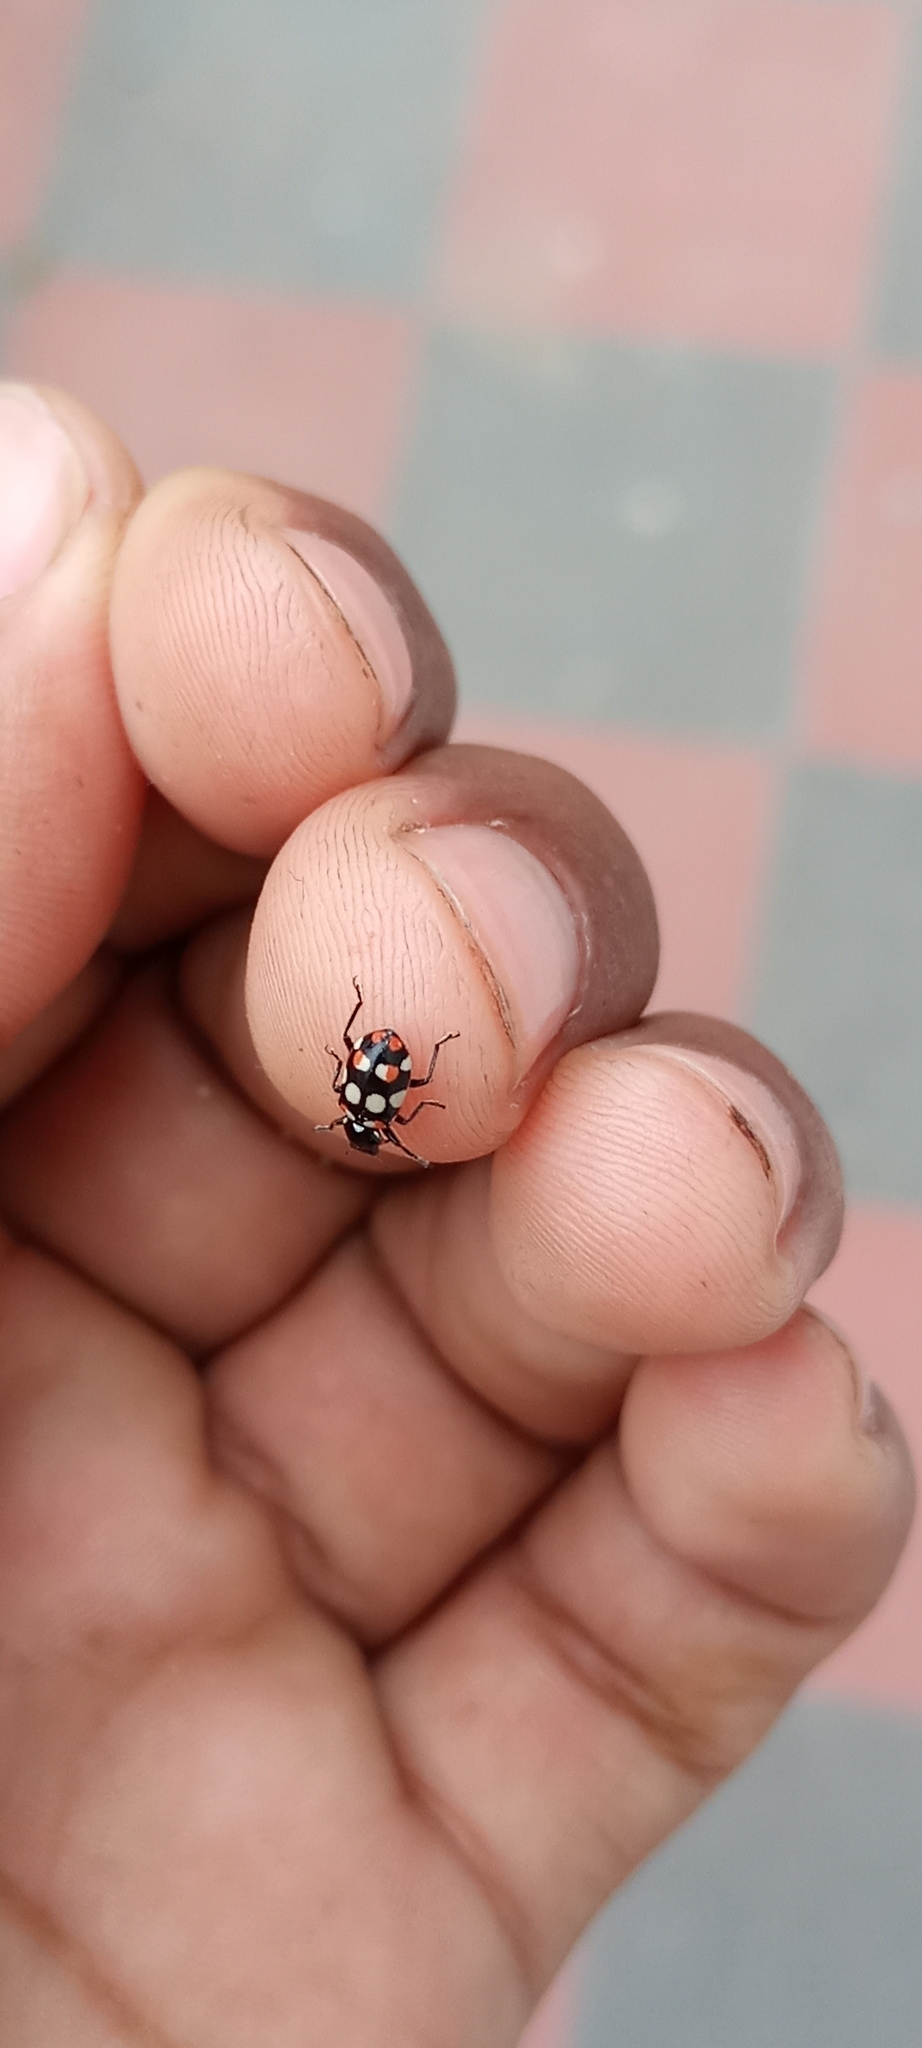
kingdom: Animalia
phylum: Arthropoda
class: Insecta
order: Coleoptera
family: Coccinellidae
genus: Eriopis
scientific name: Eriopis connexa
